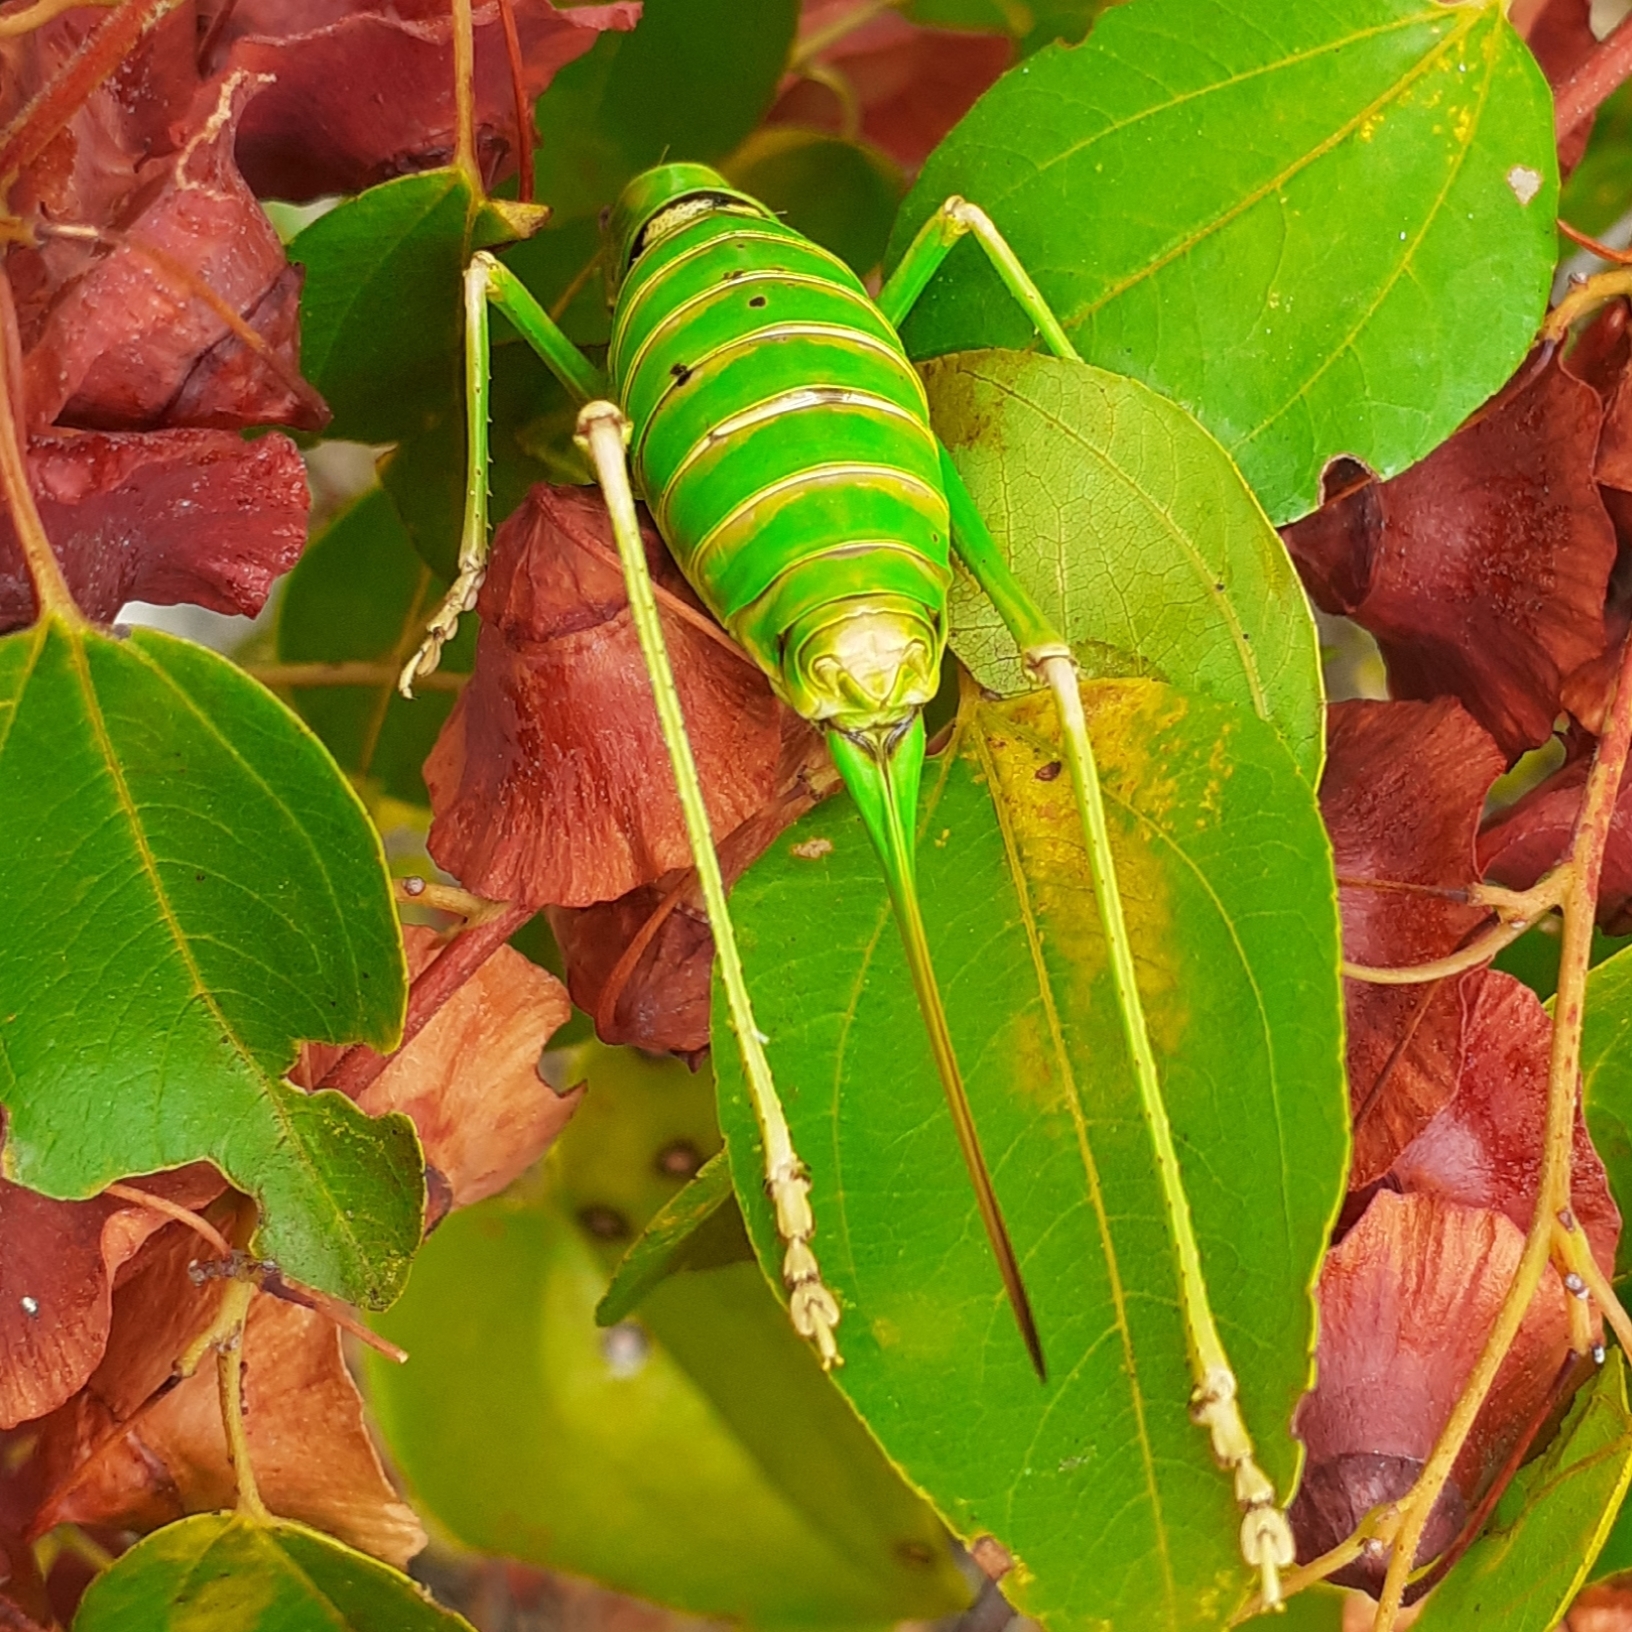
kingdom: Animalia
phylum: Arthropoda
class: Insecta
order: Orthoptera
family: Tettigoniidae
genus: Dinarippiger
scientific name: Dinarippiger discoidalis
